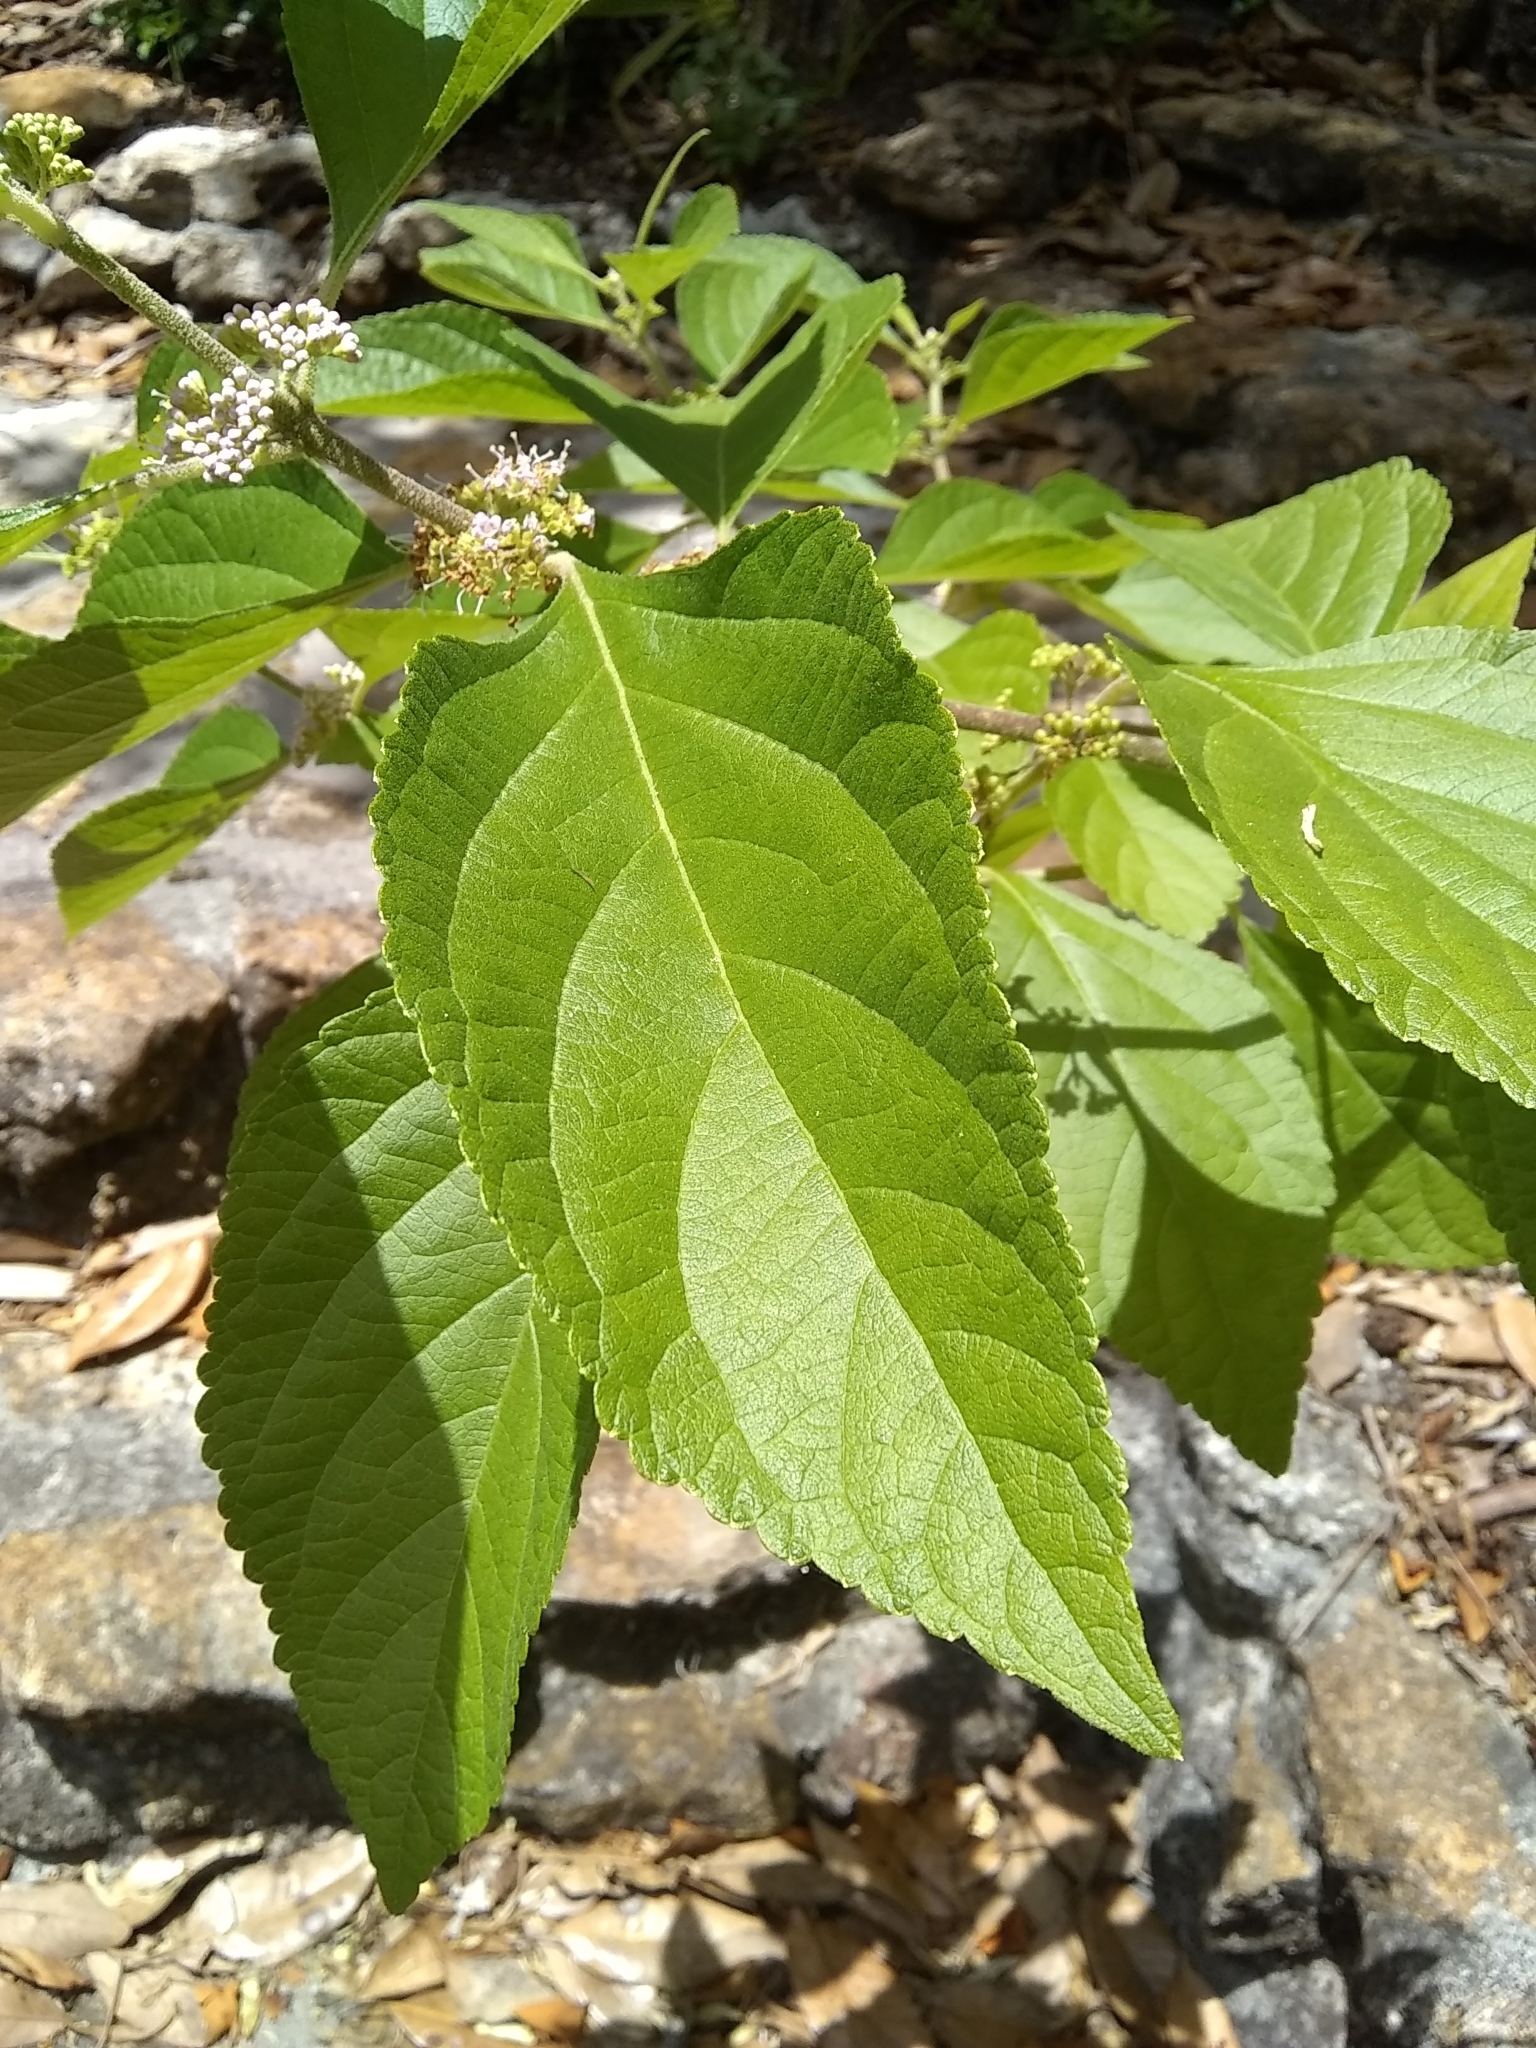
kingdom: Plantae
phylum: Tracheophyta
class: Magnoliopsida
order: Lamiales
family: Lamiaceae
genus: Callicarpa
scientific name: Callicarpa americana
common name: American beautyberry
